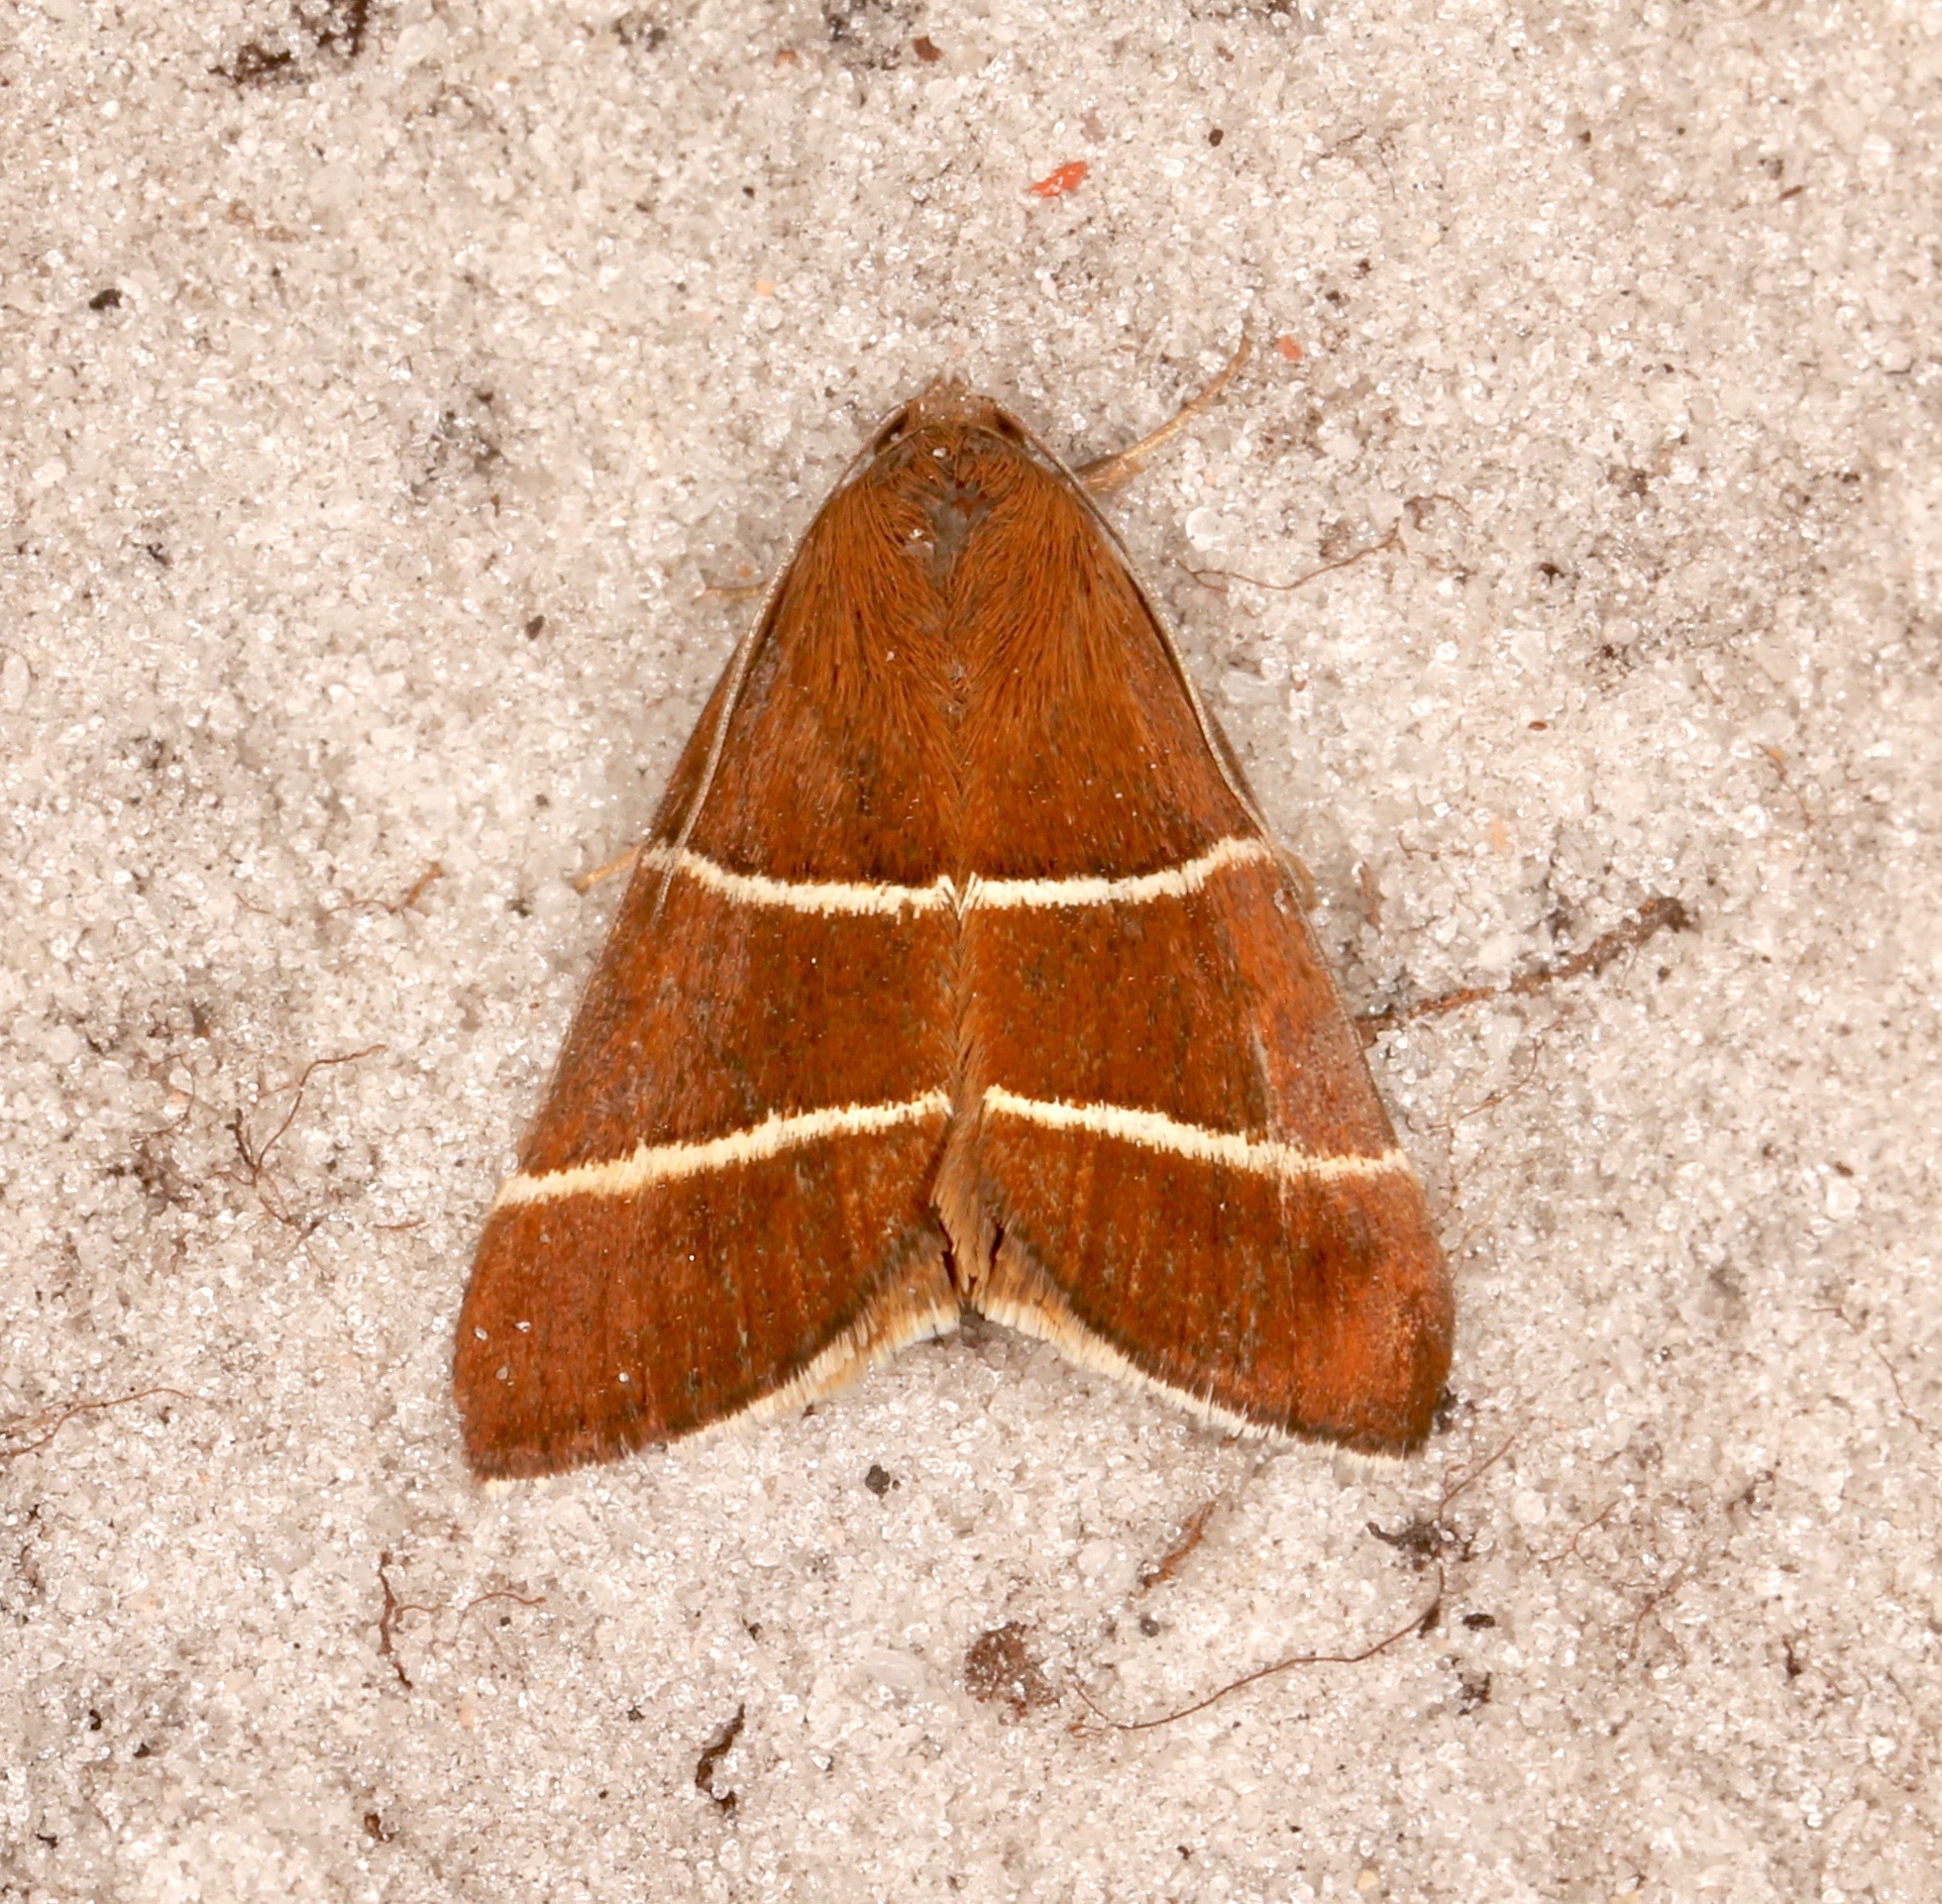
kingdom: Animalia
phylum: Arthropoda
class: Insecta
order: Lepidoptera
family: Erebidae
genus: Argyrostrotis
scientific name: Argyrostrotis quadrifilaris
